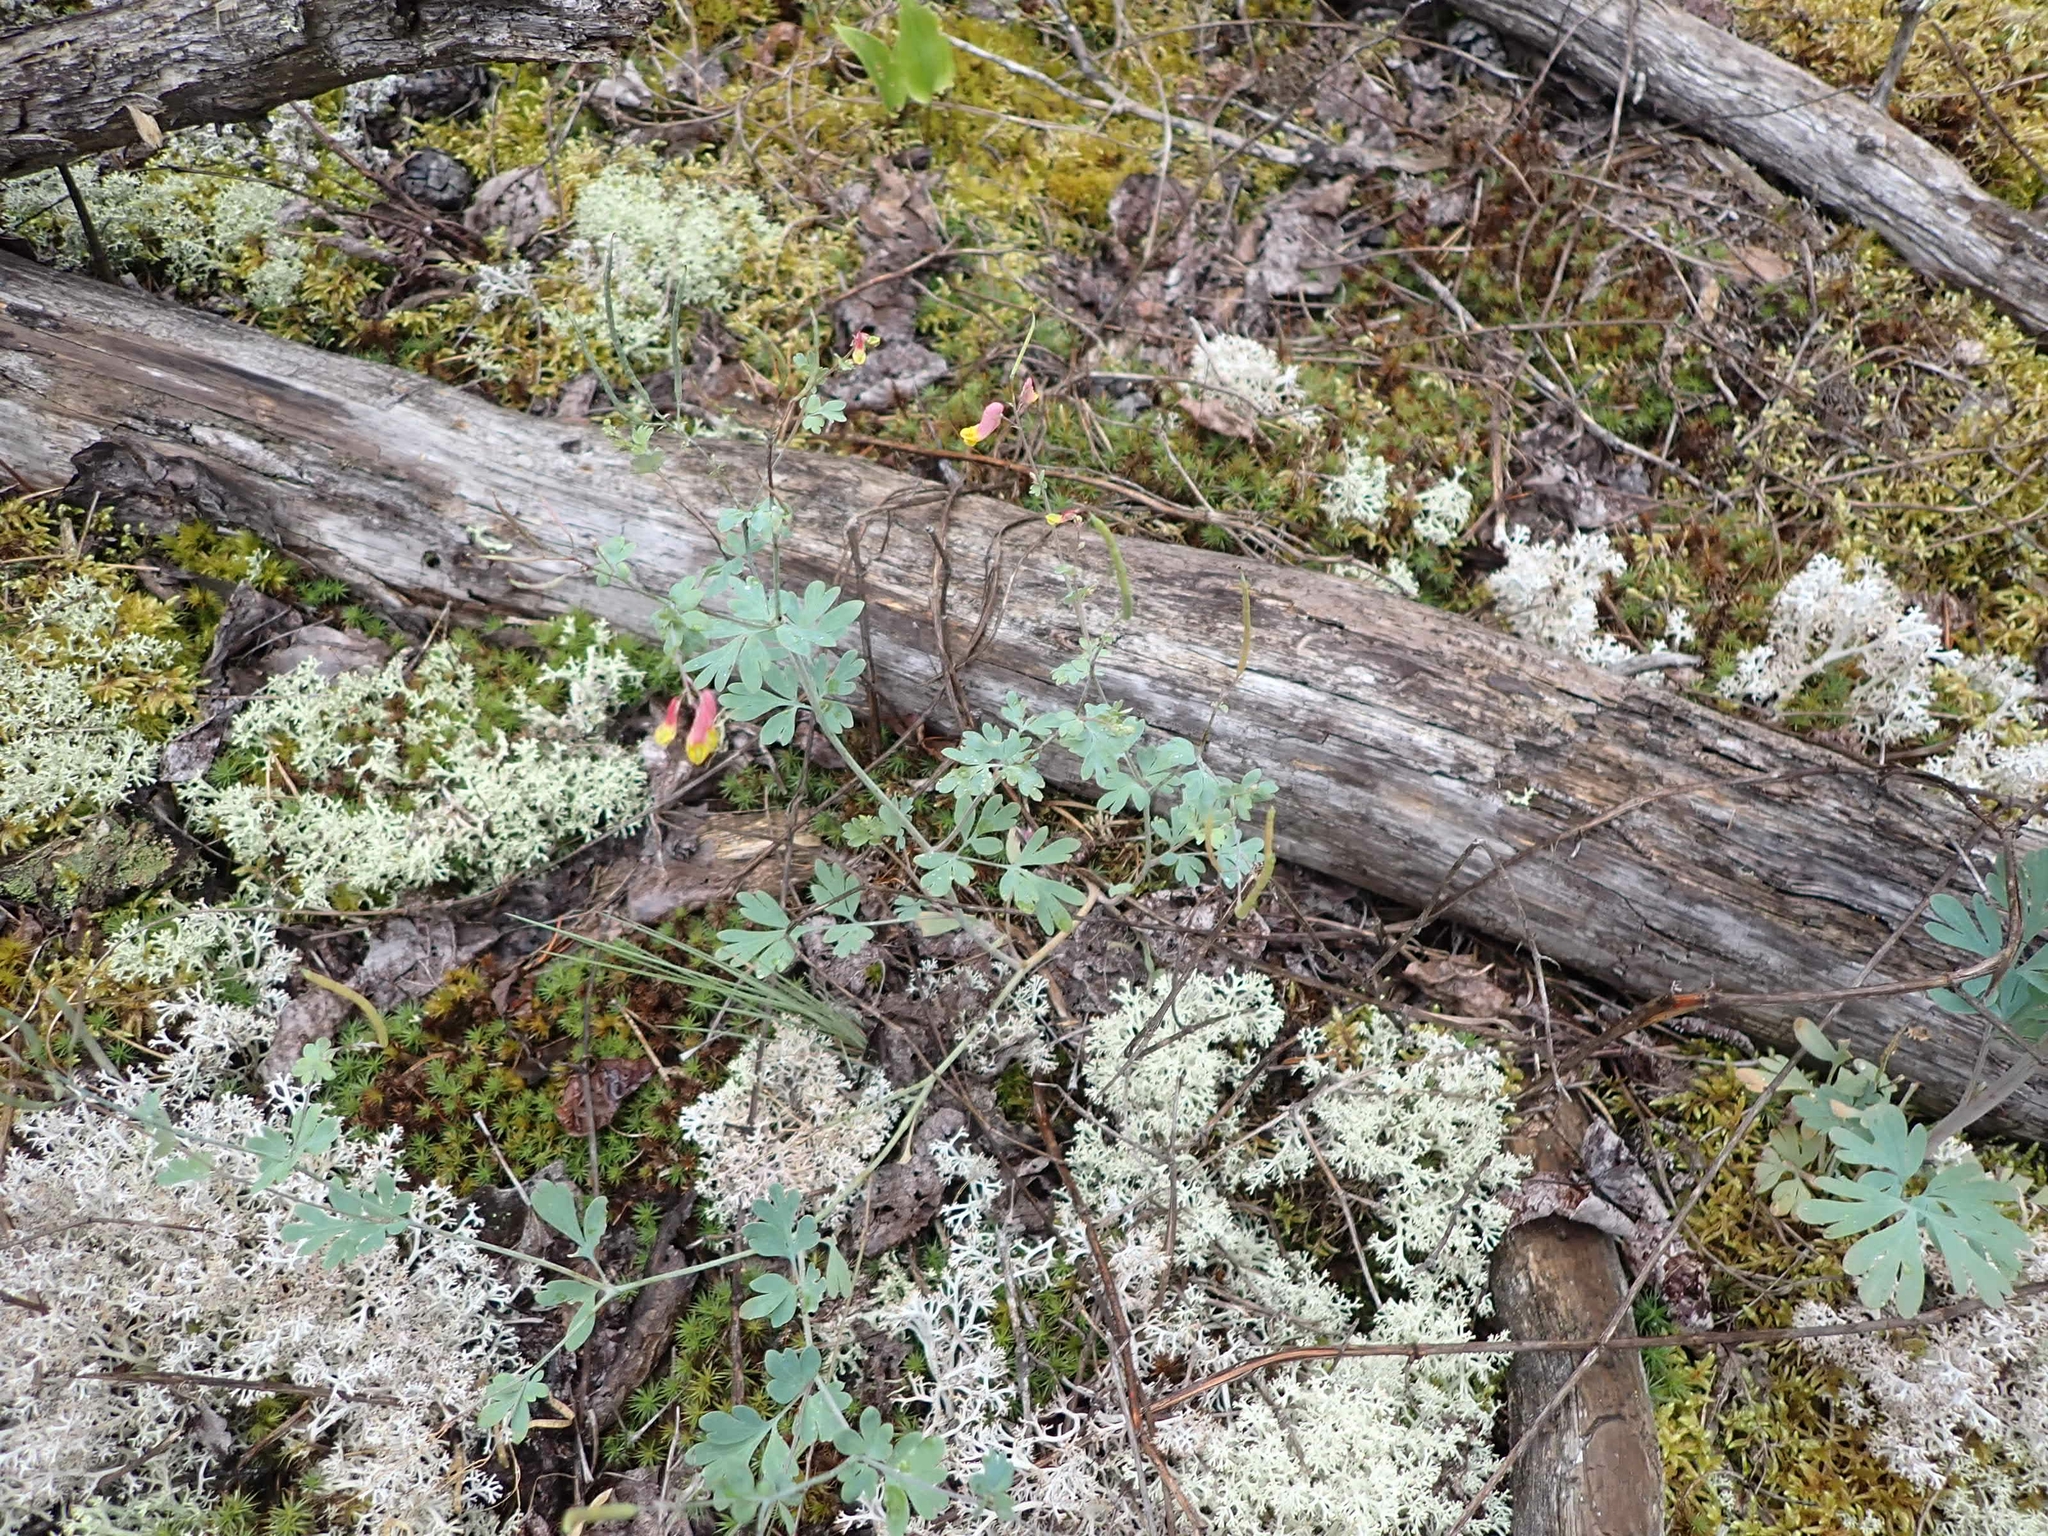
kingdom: Plantae
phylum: Tracheophyta
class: Magnoliopsida
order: Ranunculales
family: Papaveraceae
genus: Capnoides
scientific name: Capnoides sempervirens
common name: Rock harlequin
